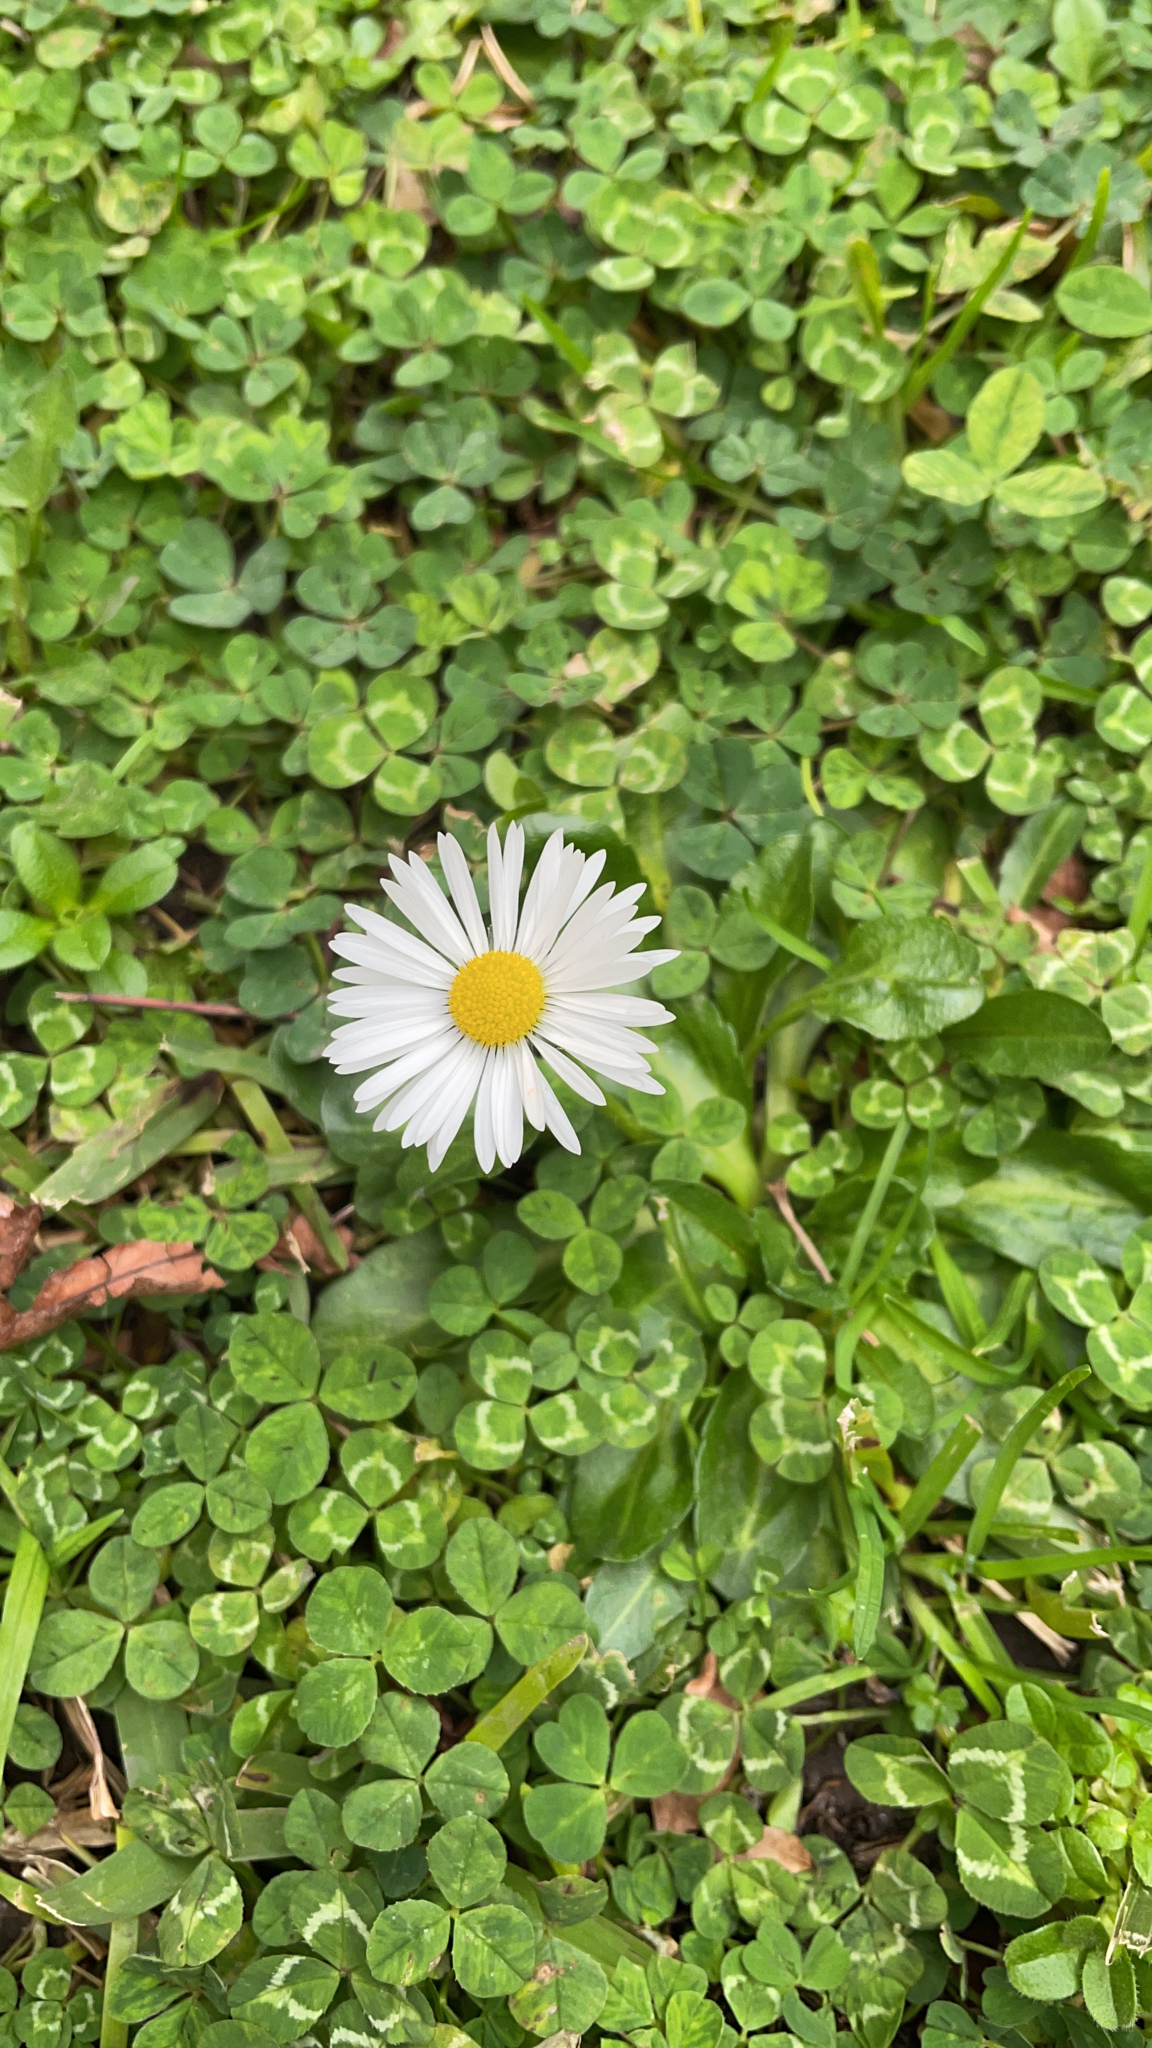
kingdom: Plantae
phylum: Tracheophyta
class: Magnoliopsida
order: Asterales
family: Asteraceae
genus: Bellis
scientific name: Bellis perennis
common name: Lawndaisy
